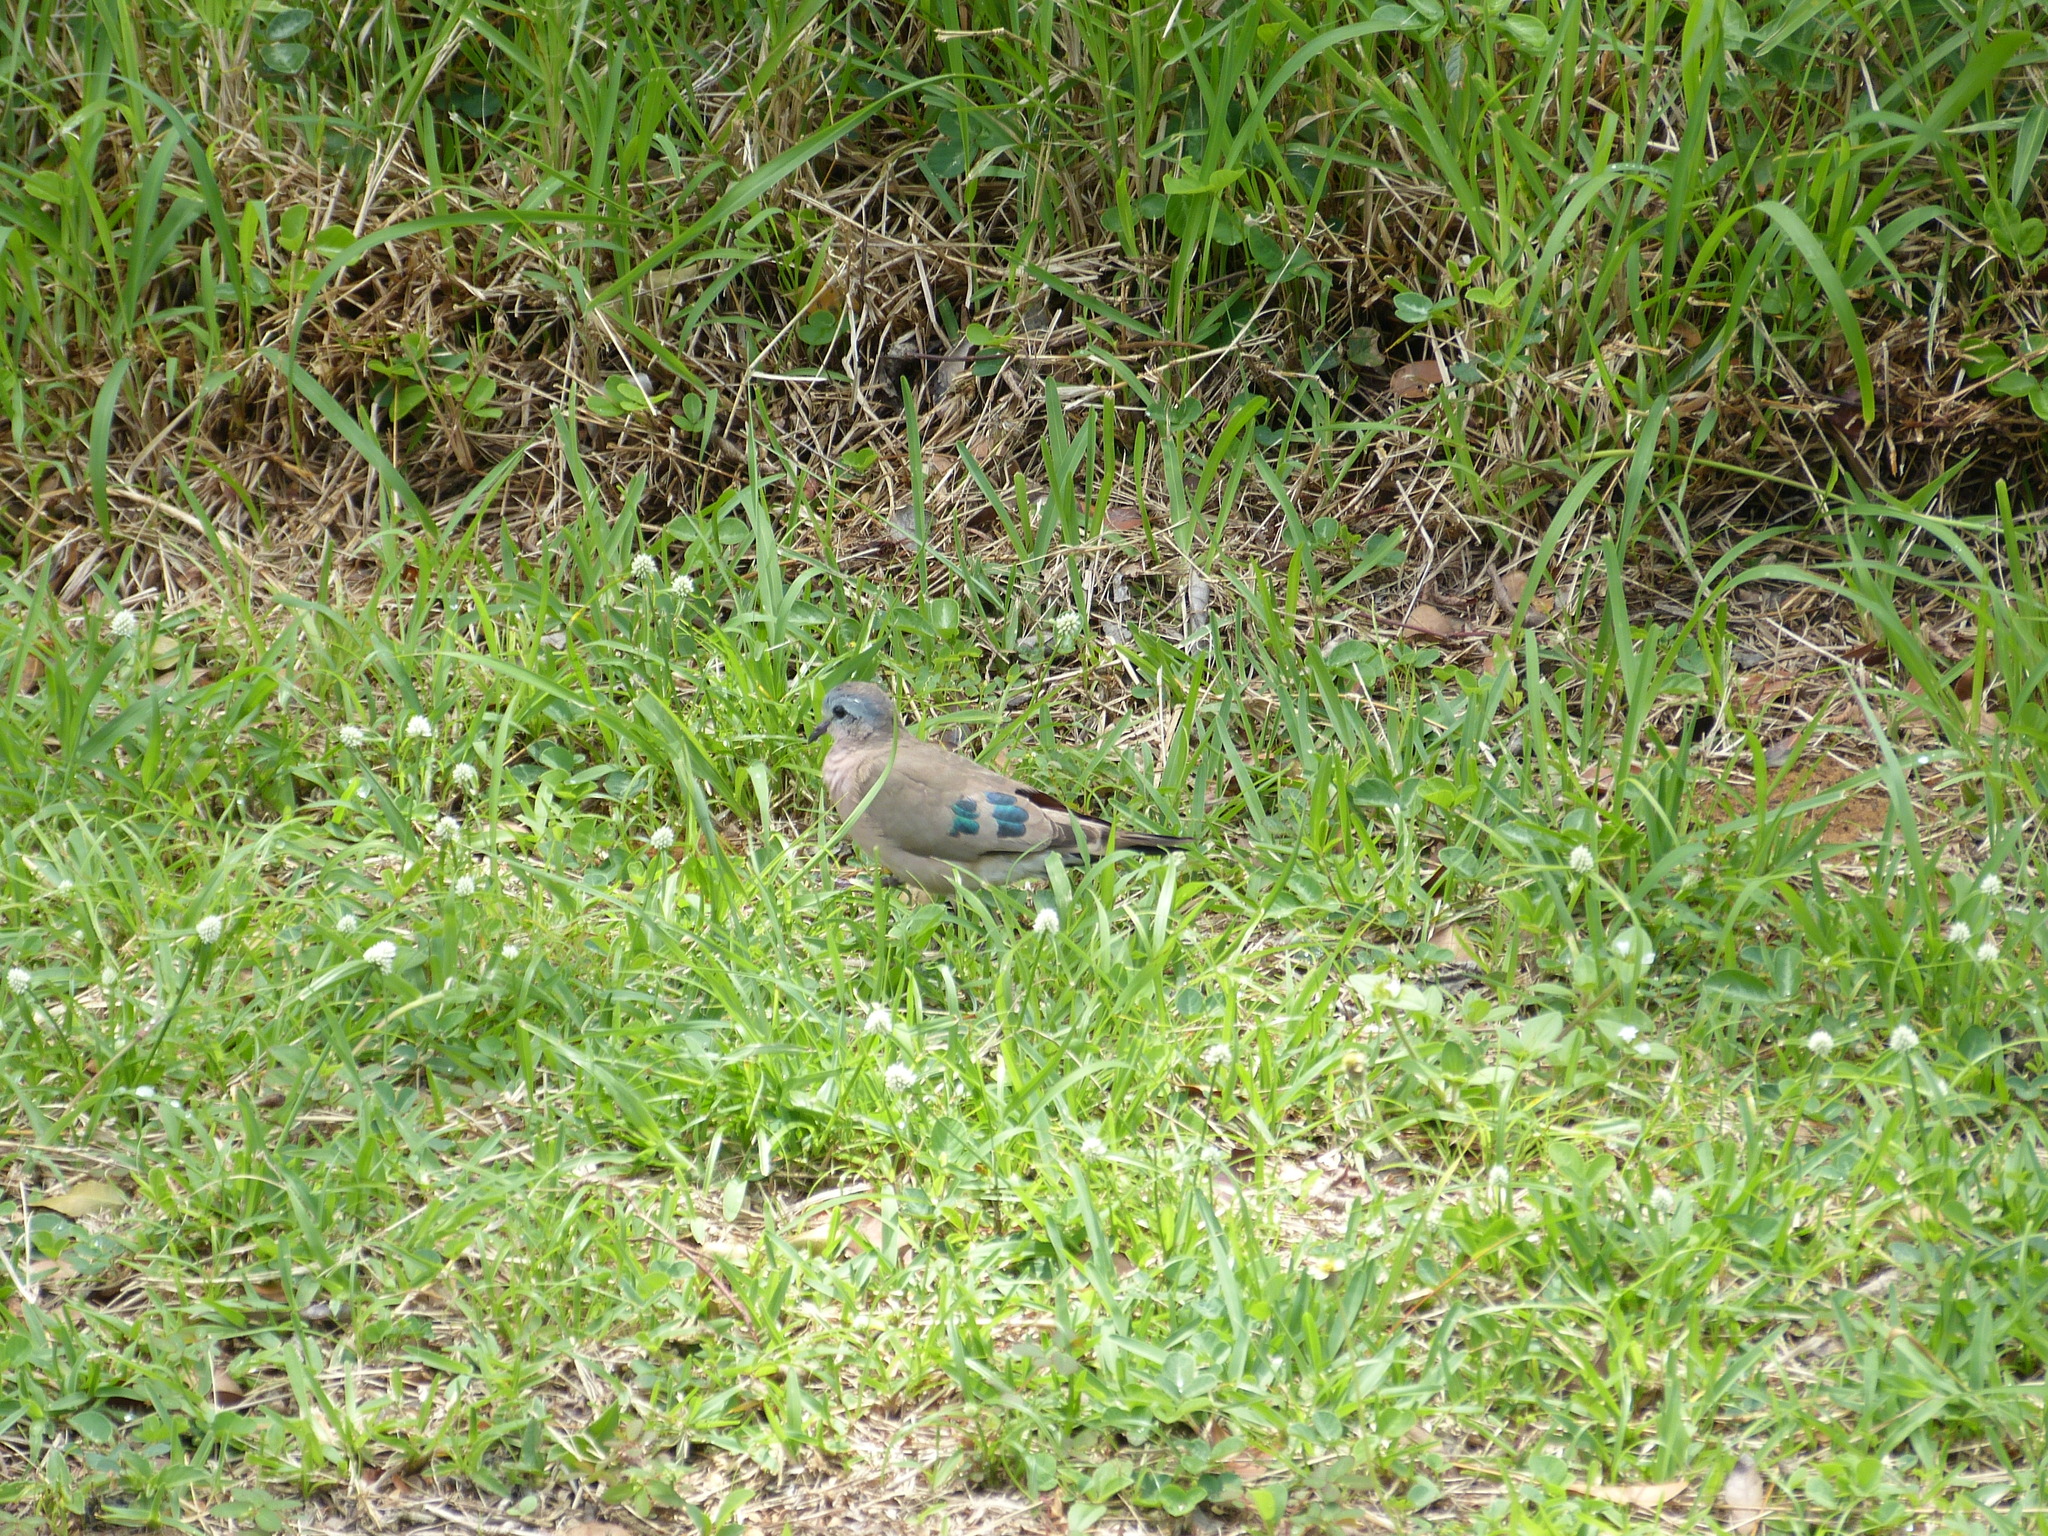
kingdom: Animalia
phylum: Chordata
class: Aves
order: Columbiformes
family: Columbidae
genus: Turtur
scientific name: Turtur chalcospilos
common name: Emerald-spotted wood dove
